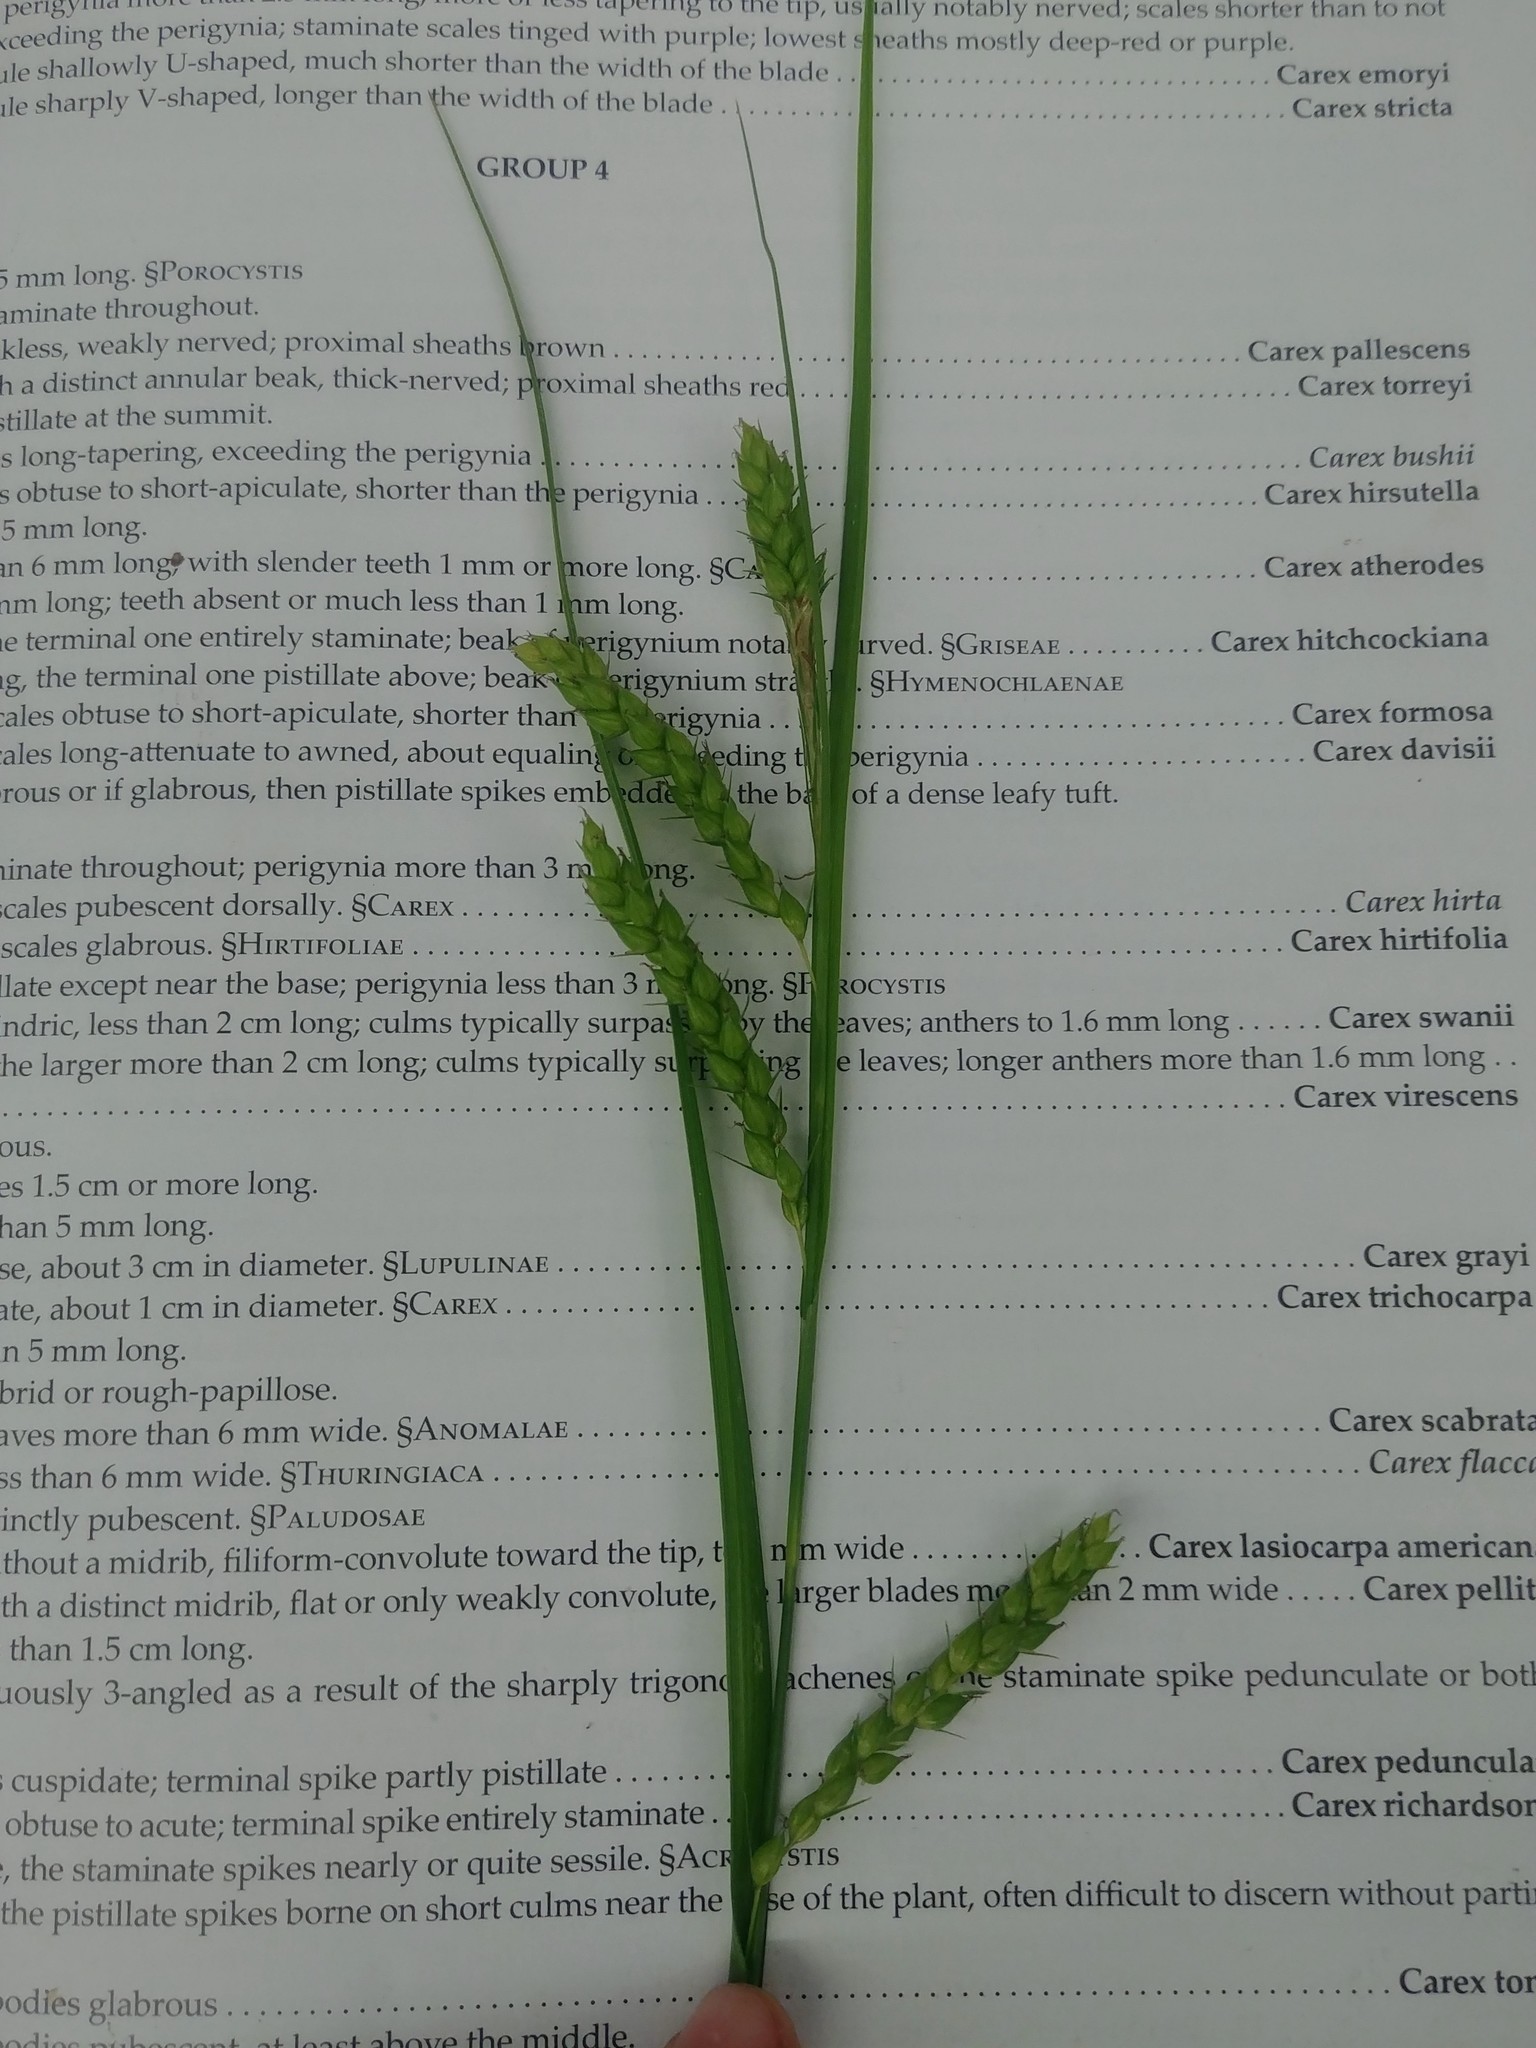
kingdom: Plantae
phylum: Tracheophyta
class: Liliopsida
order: Poales
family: Cyperaceae
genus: Carex
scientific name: Carex davisii
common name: Davis' sedge
